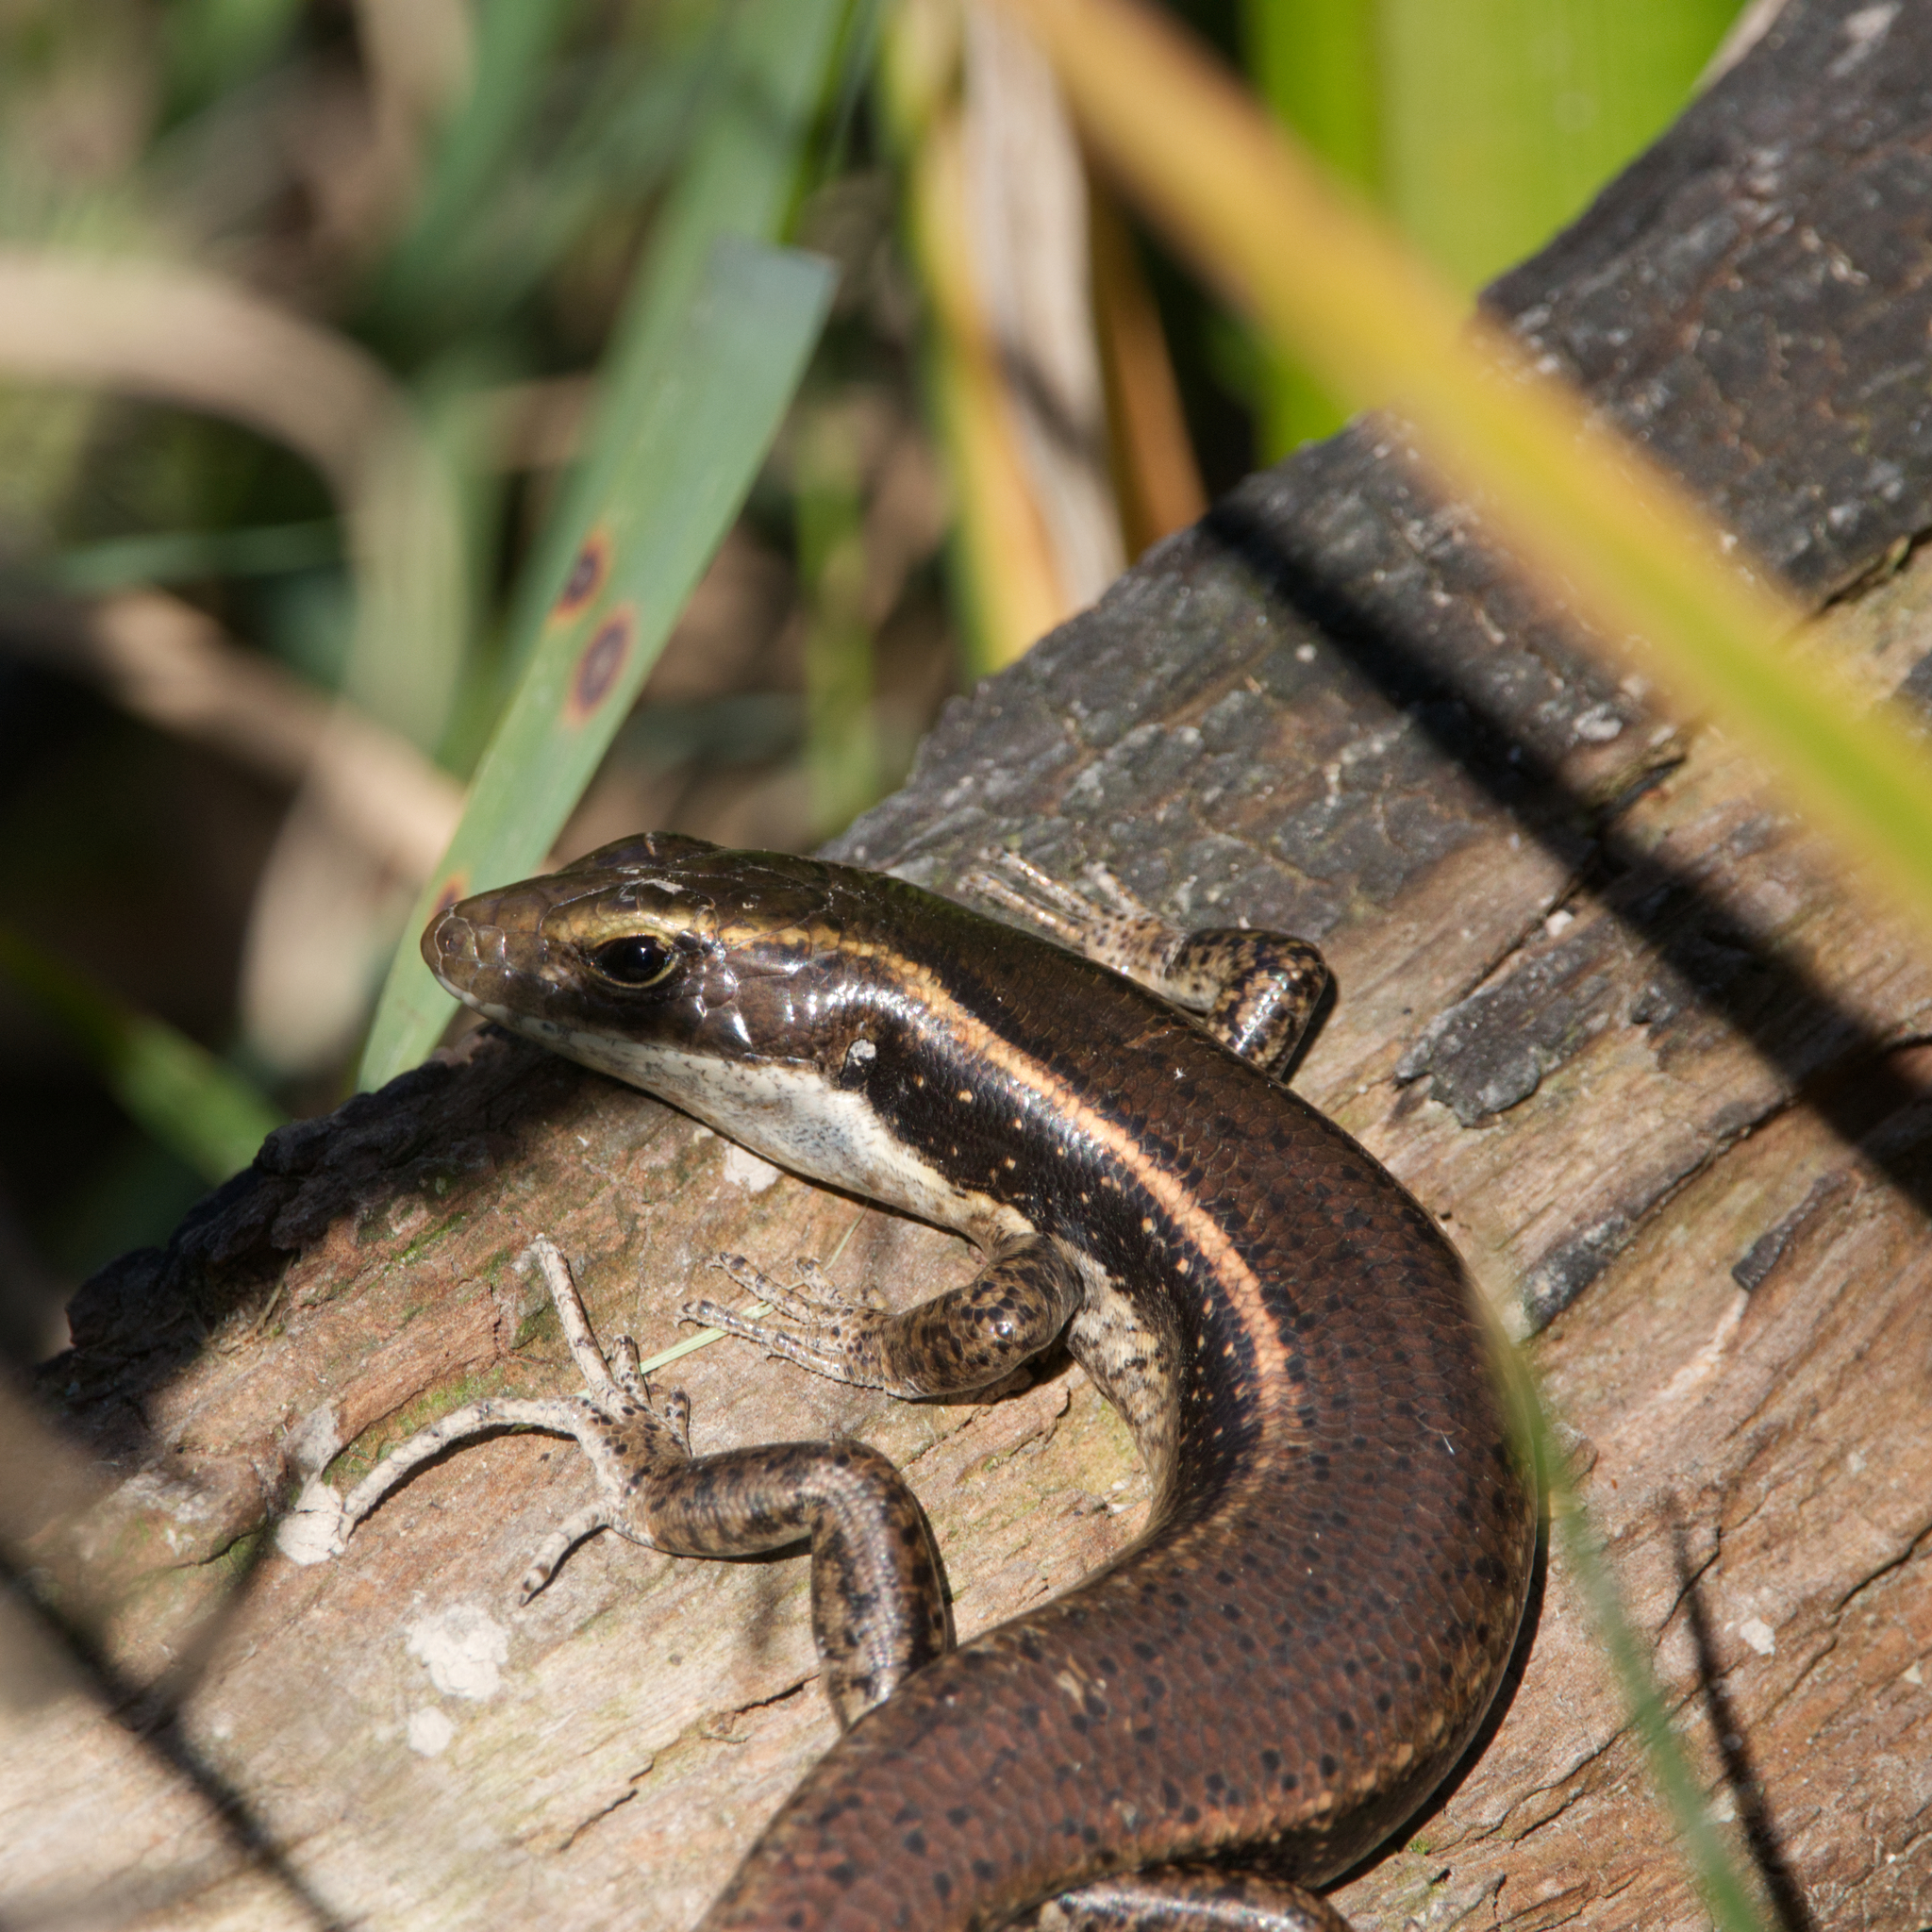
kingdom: Animalia
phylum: Chordata
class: Squamata
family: Scincidae
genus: Eulamprus
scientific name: Eulamprus quoyii
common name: Eastern water skink
